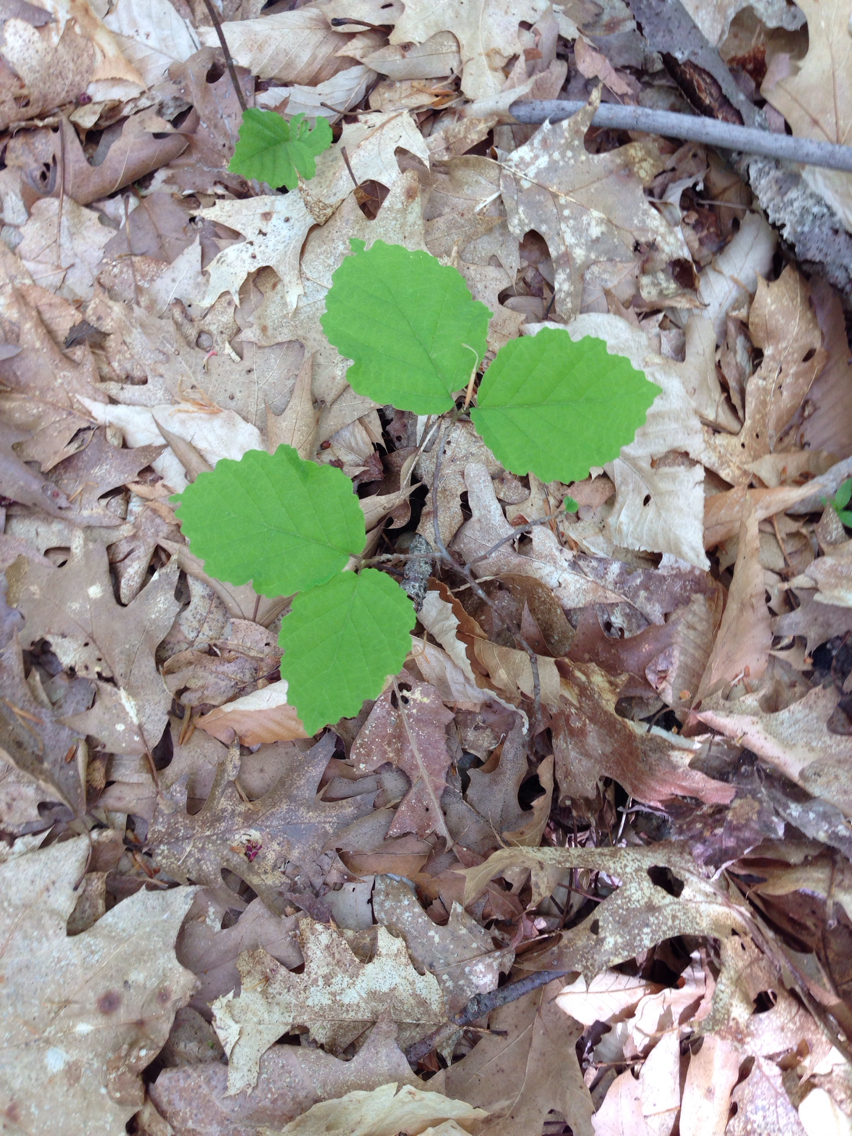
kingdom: Plantae
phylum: Tracheophyta
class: Magnoliopsida
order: Saxifragales
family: Hamamelidaceae
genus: Hamamelis
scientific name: Hamamelis virginiana
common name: Witch-hazel
